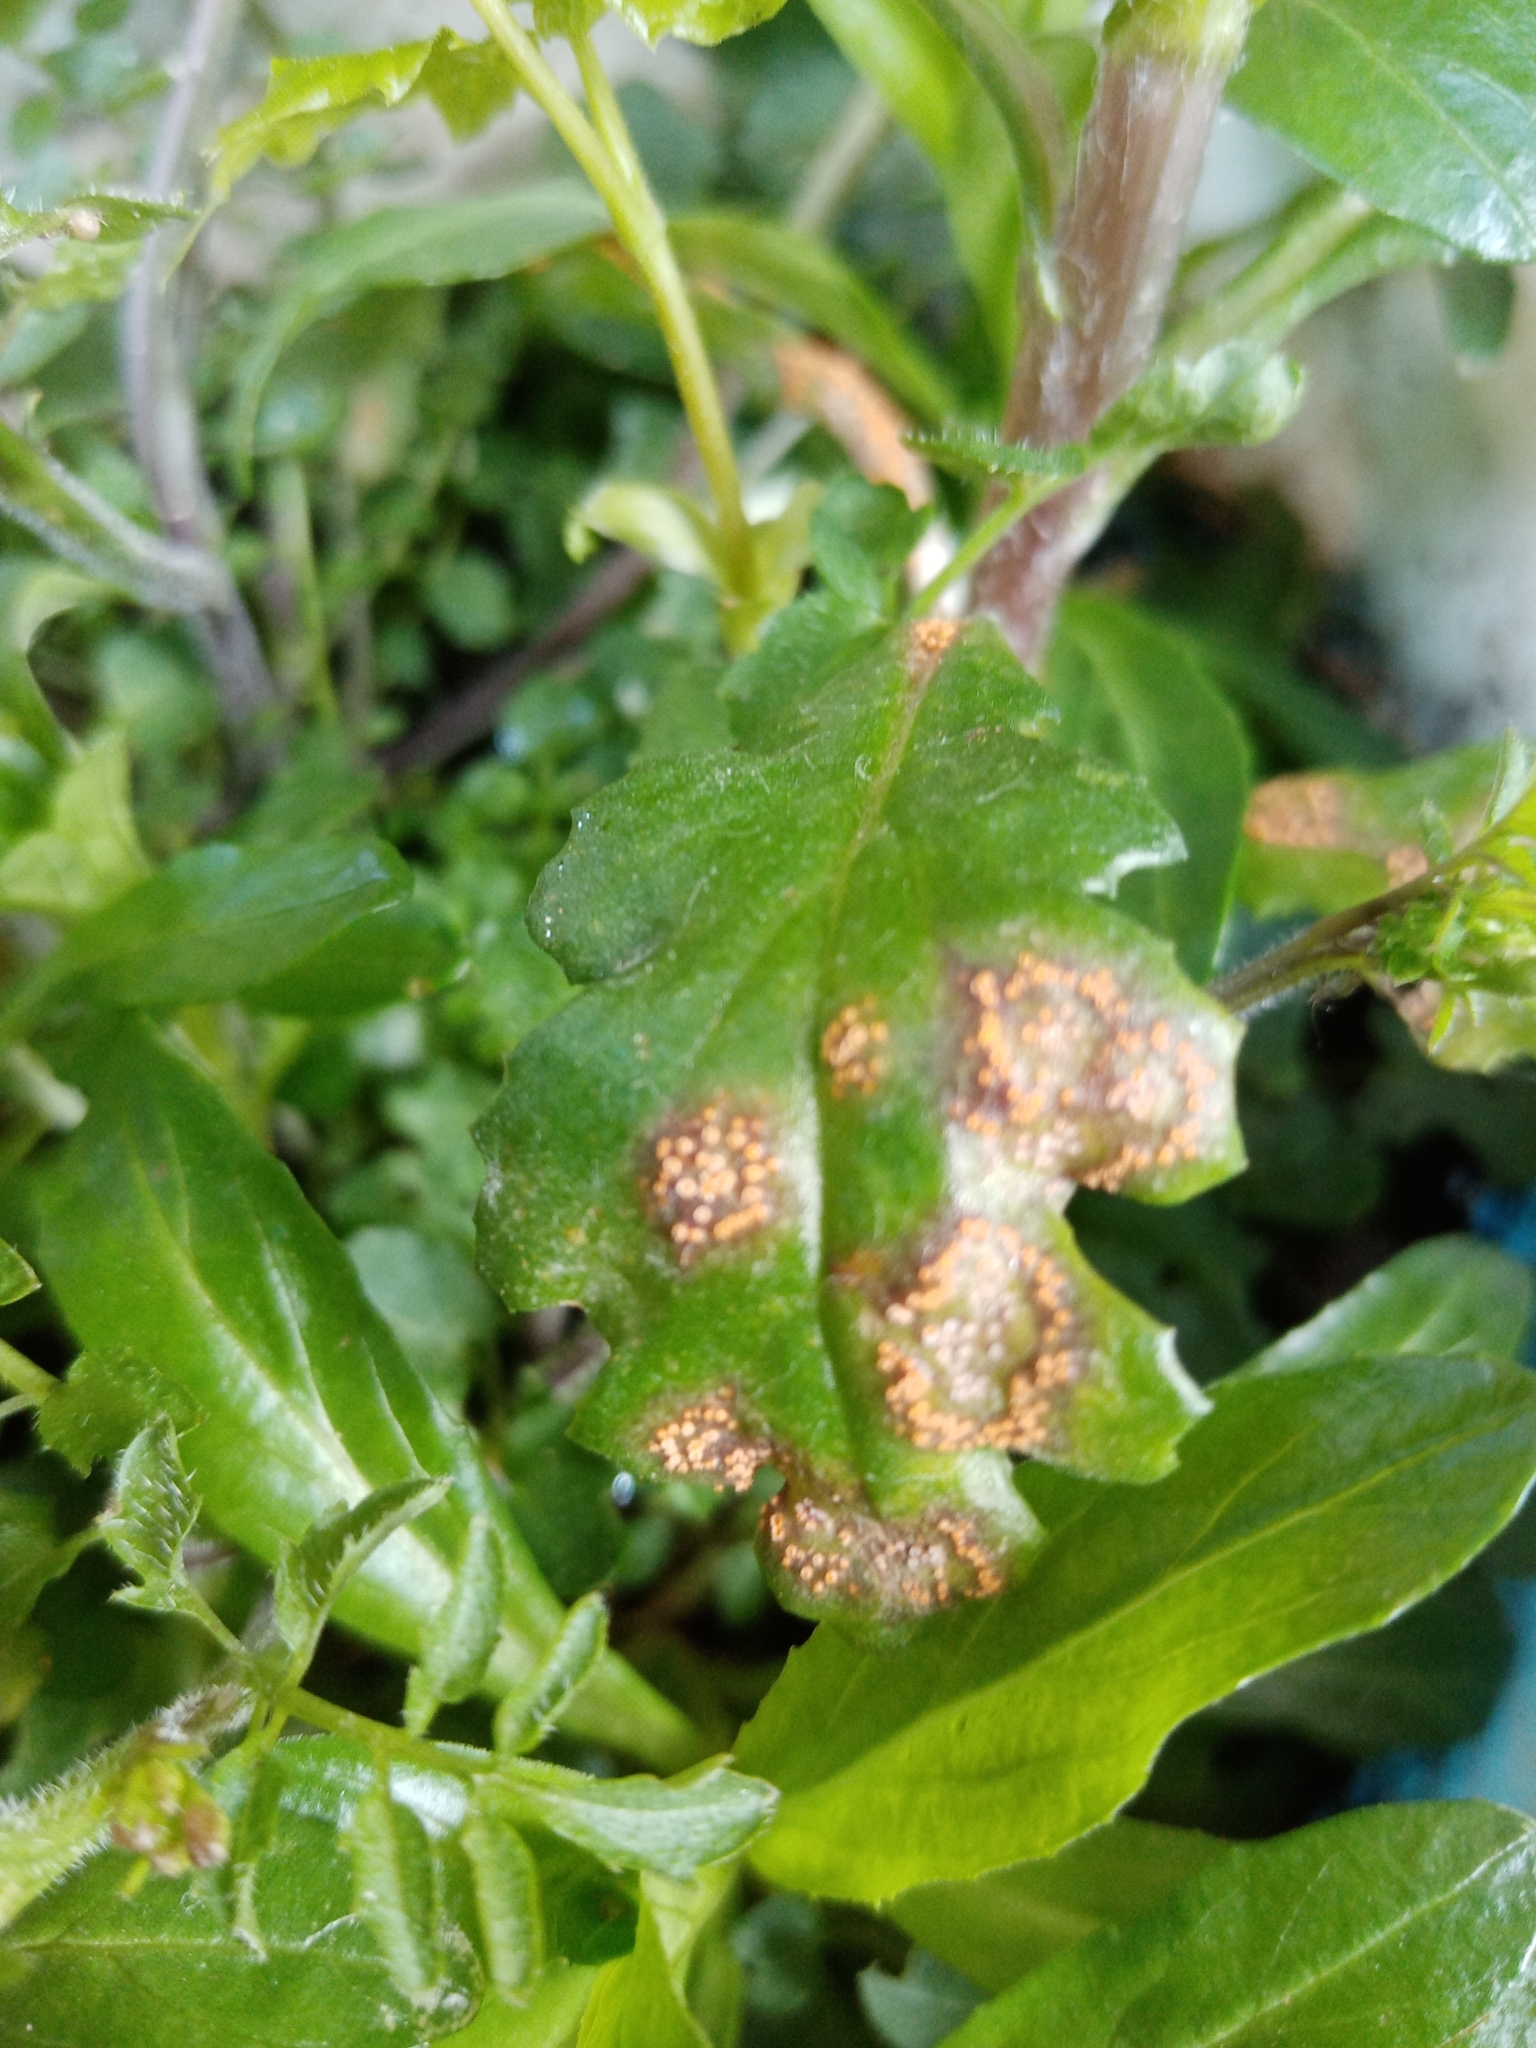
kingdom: Fungi
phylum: Basidiomycota
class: Pucciniomycetes
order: Pucciniales
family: Pucciniaceae
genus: Puccinia
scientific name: Puccinia lagenophorae
